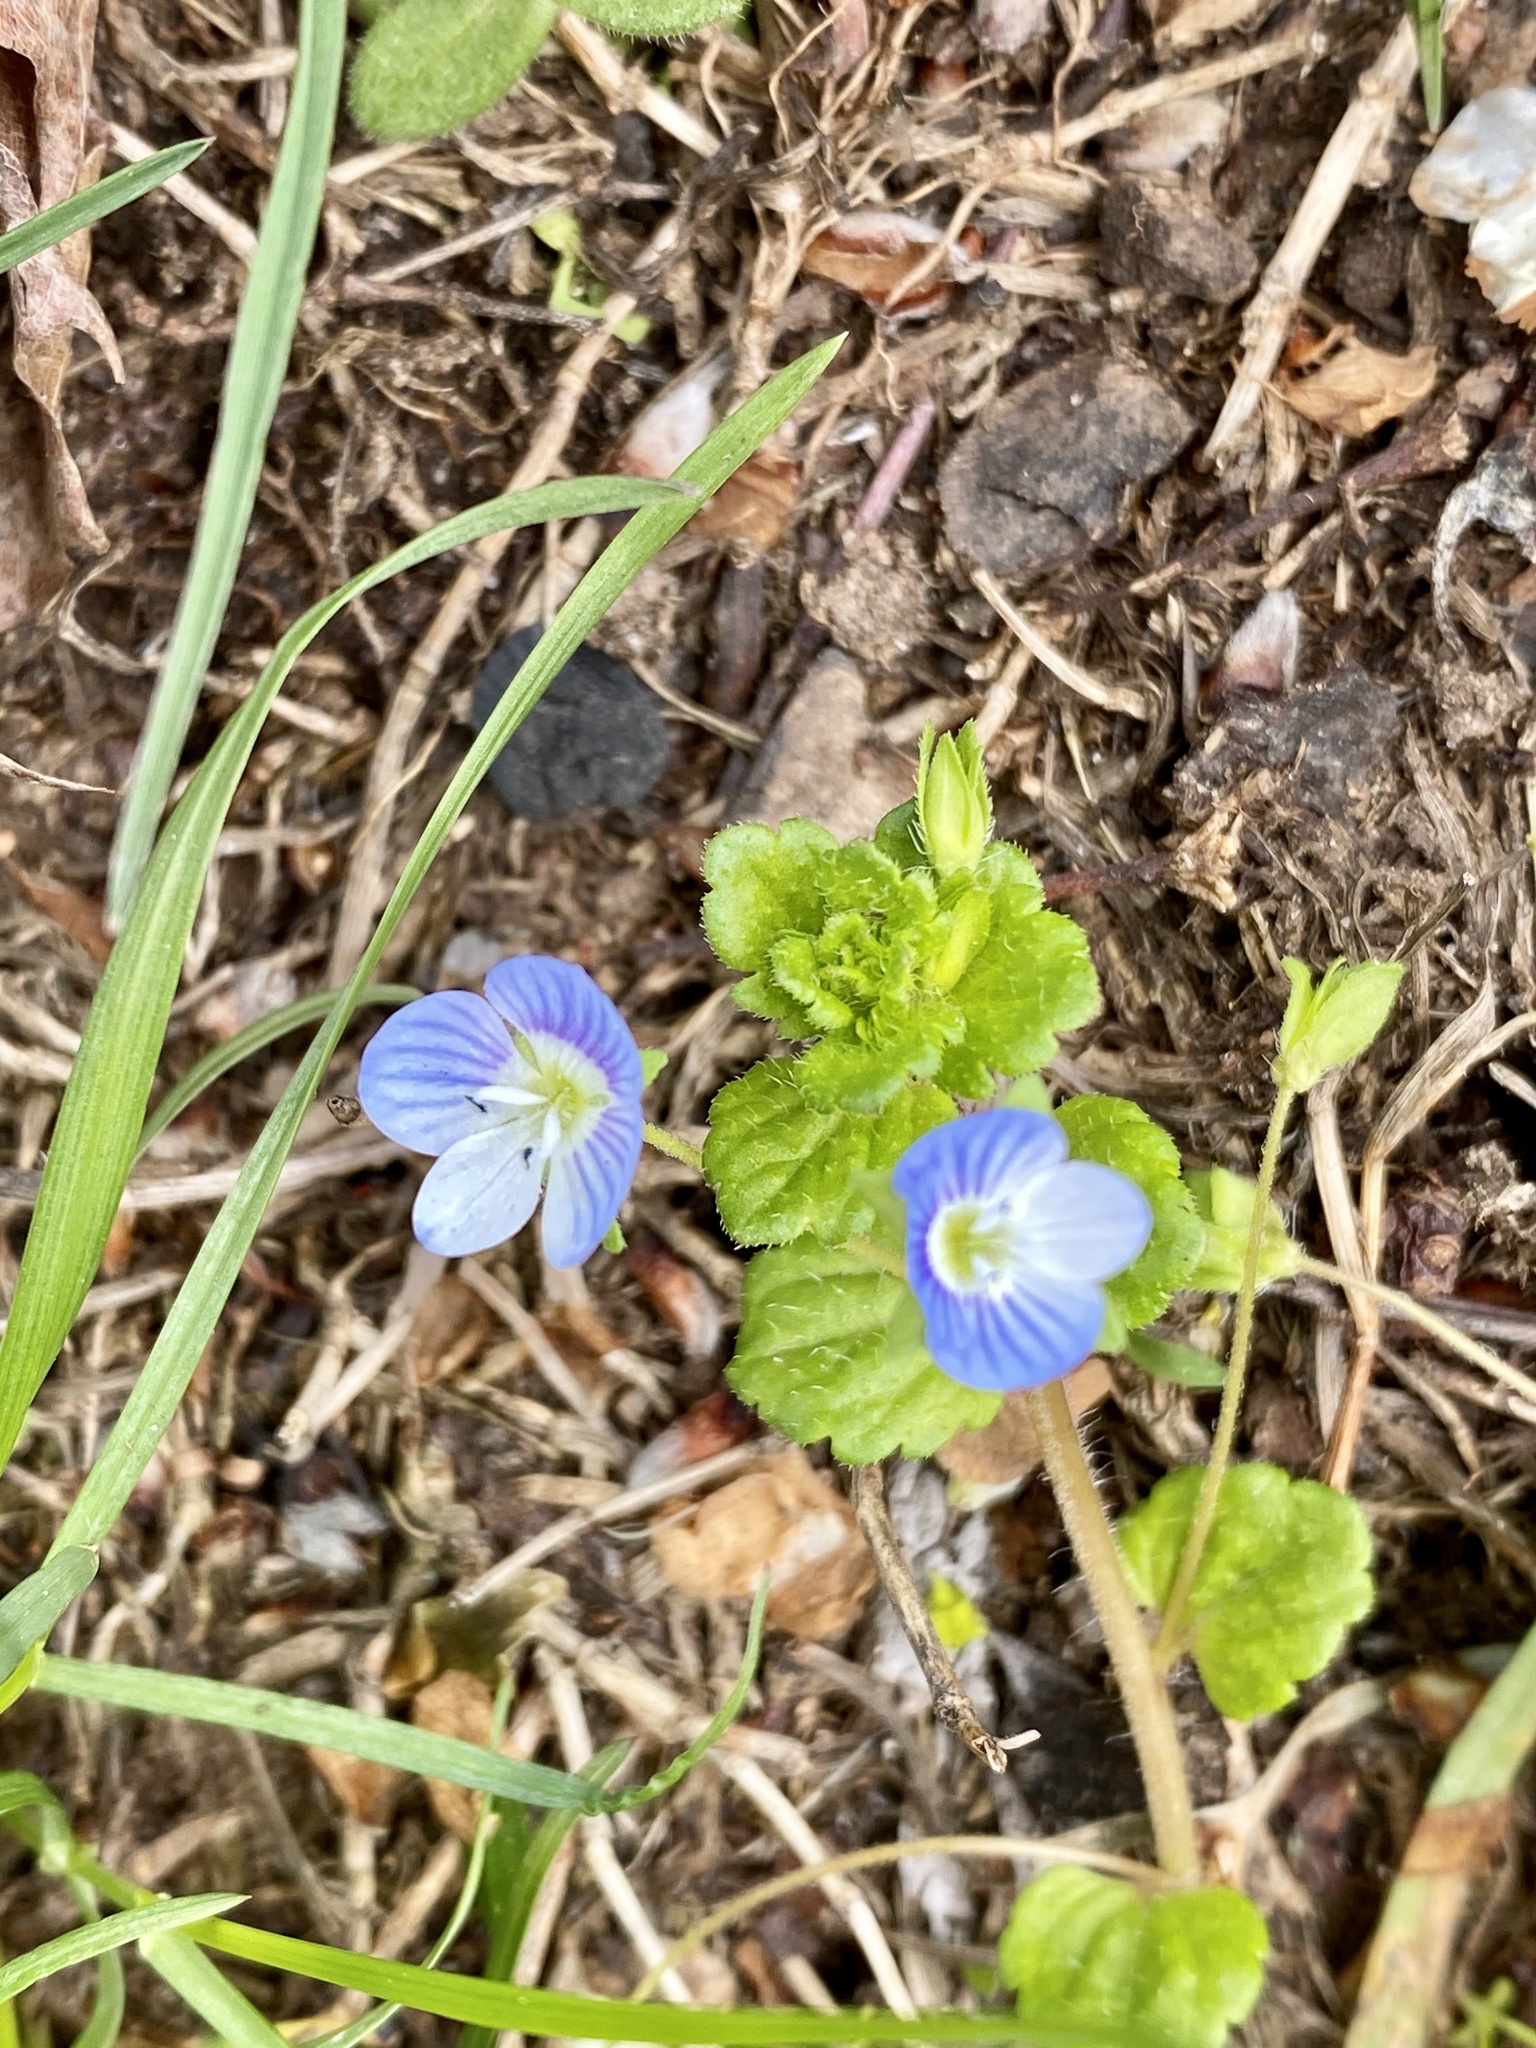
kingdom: Plantae
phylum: Tracheophyta
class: Magnoliopsida
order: Lamiales
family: Plantaginaceae
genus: Veronica
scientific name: Veronica persica
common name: Common field-speedwell
